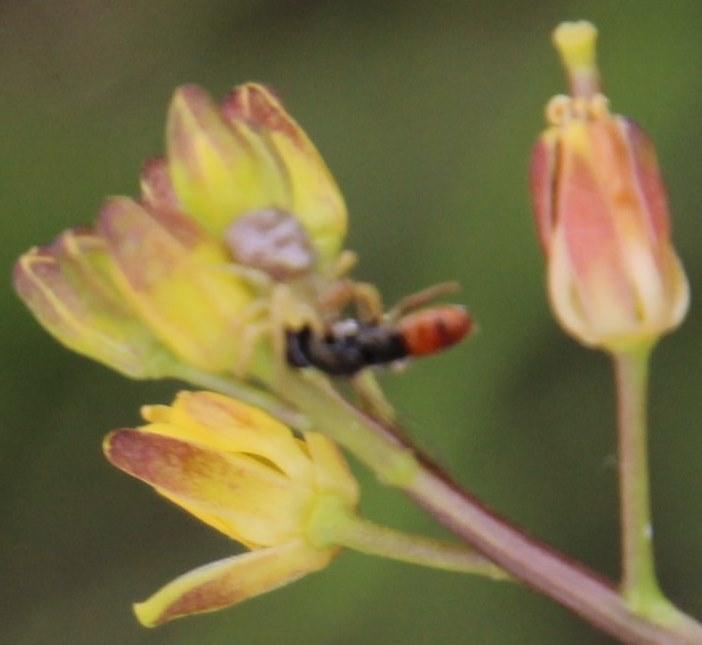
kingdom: Animalia
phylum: Arthropoda
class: Insecta
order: Diptera
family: Syrphidae
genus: Paragus
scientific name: Paragus haemorrhous
